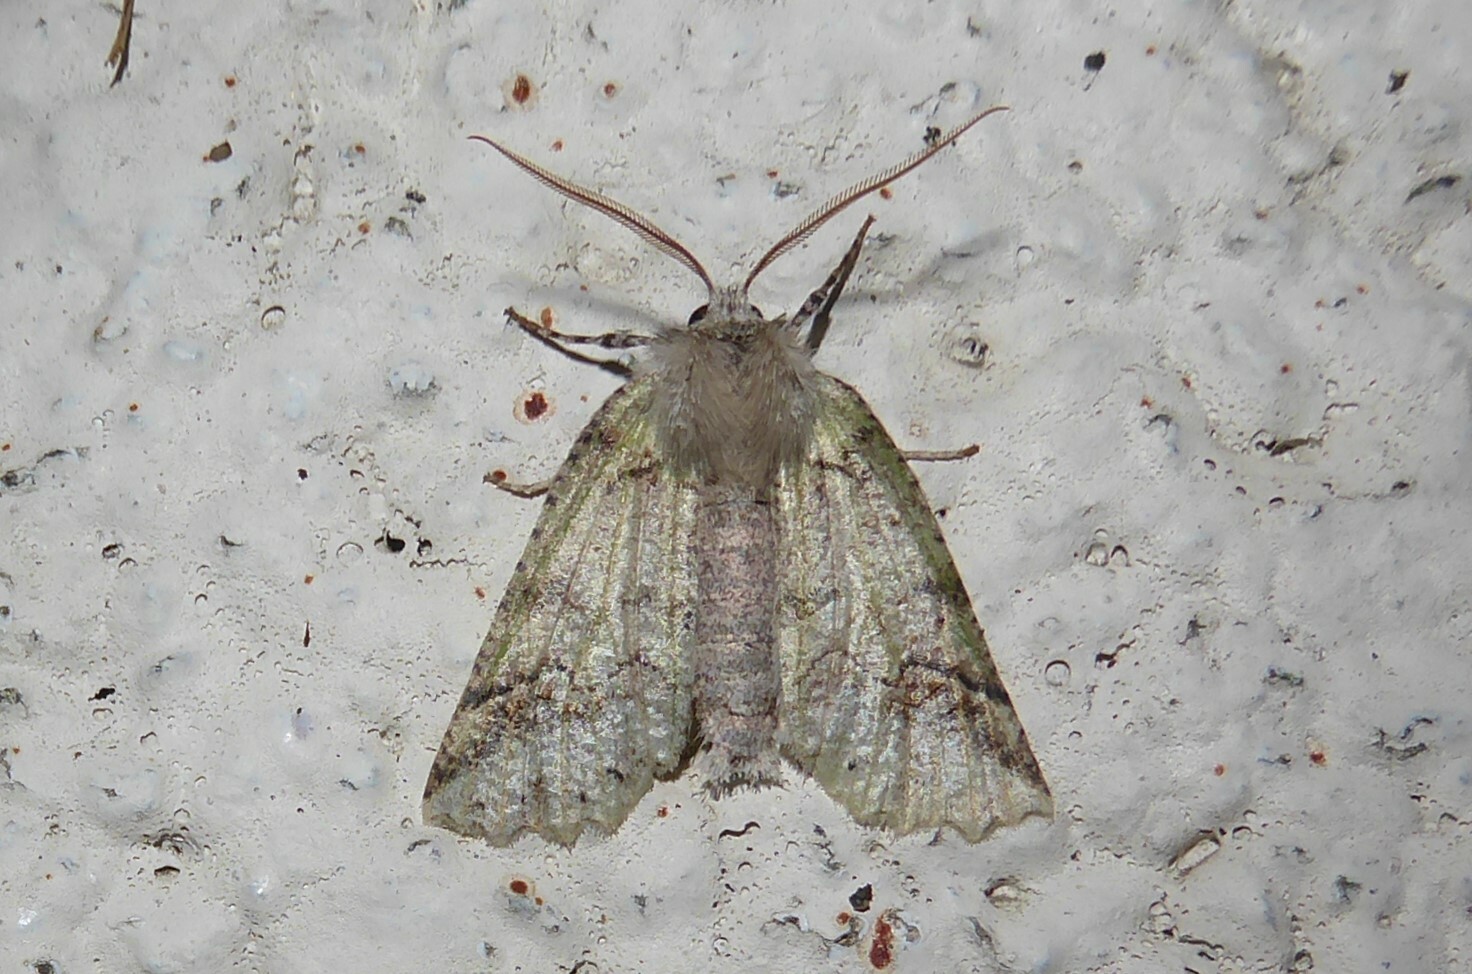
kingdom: Animalia
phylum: Arthropoda
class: Insecta
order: Lepidoptera
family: Geometridae
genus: Declana
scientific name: Declana floccosa
